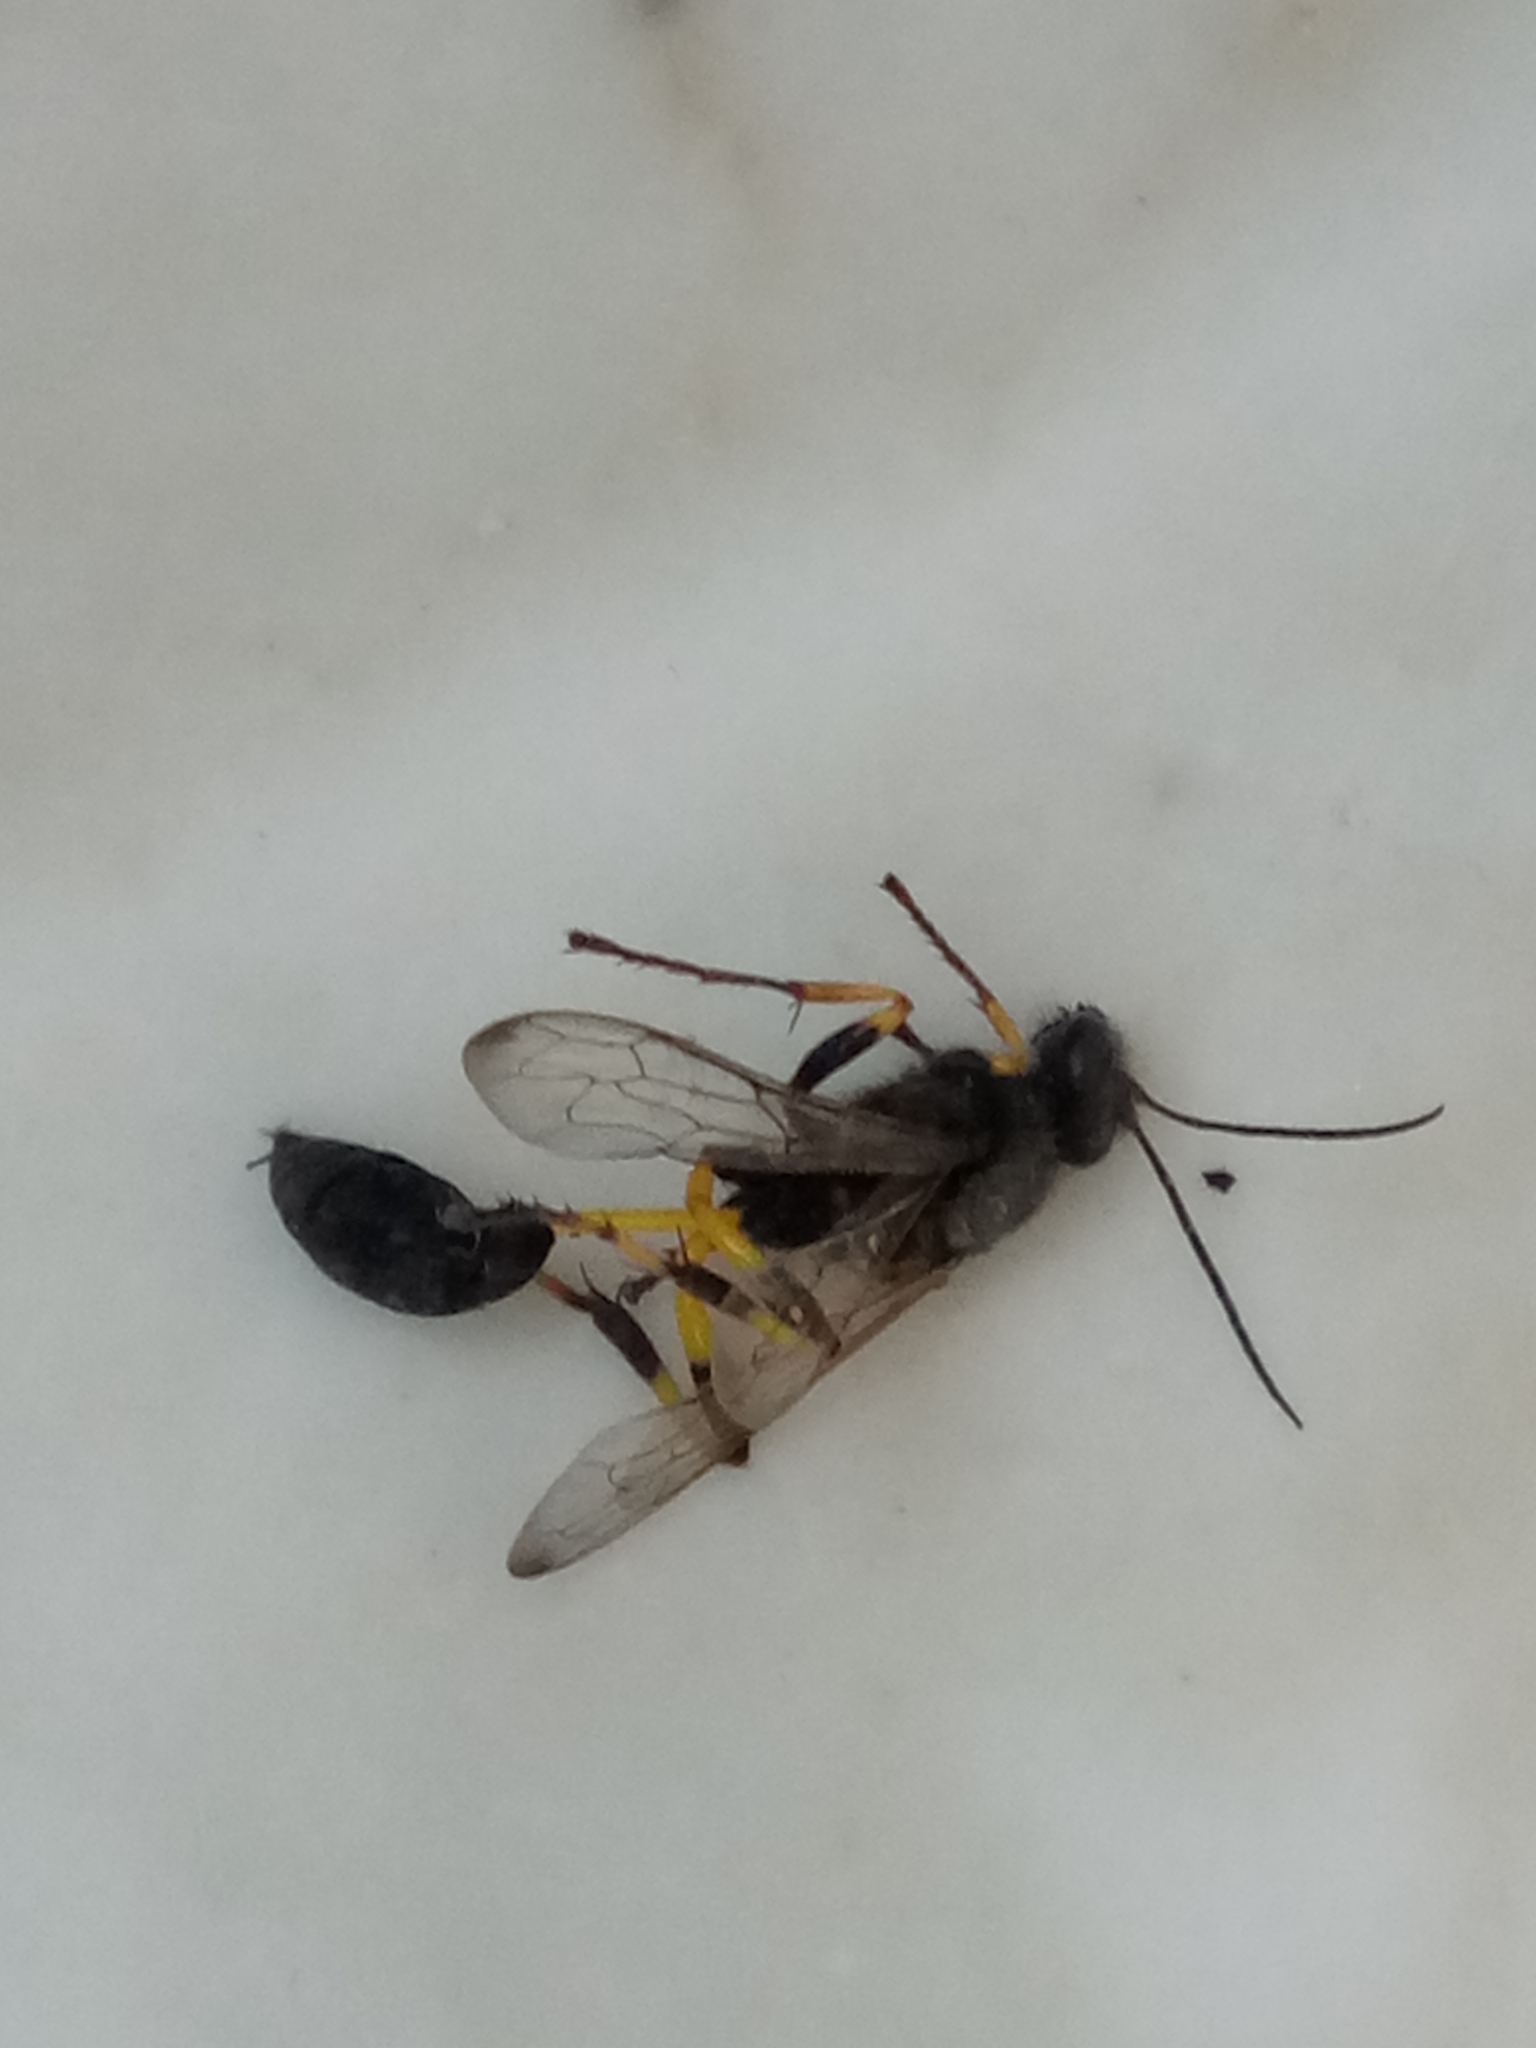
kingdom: Animalia
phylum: Arthropoda
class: Insecta
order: Hymenoptera
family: Sphecidae
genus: Sceliphron
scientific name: Sceliphron spirifex
